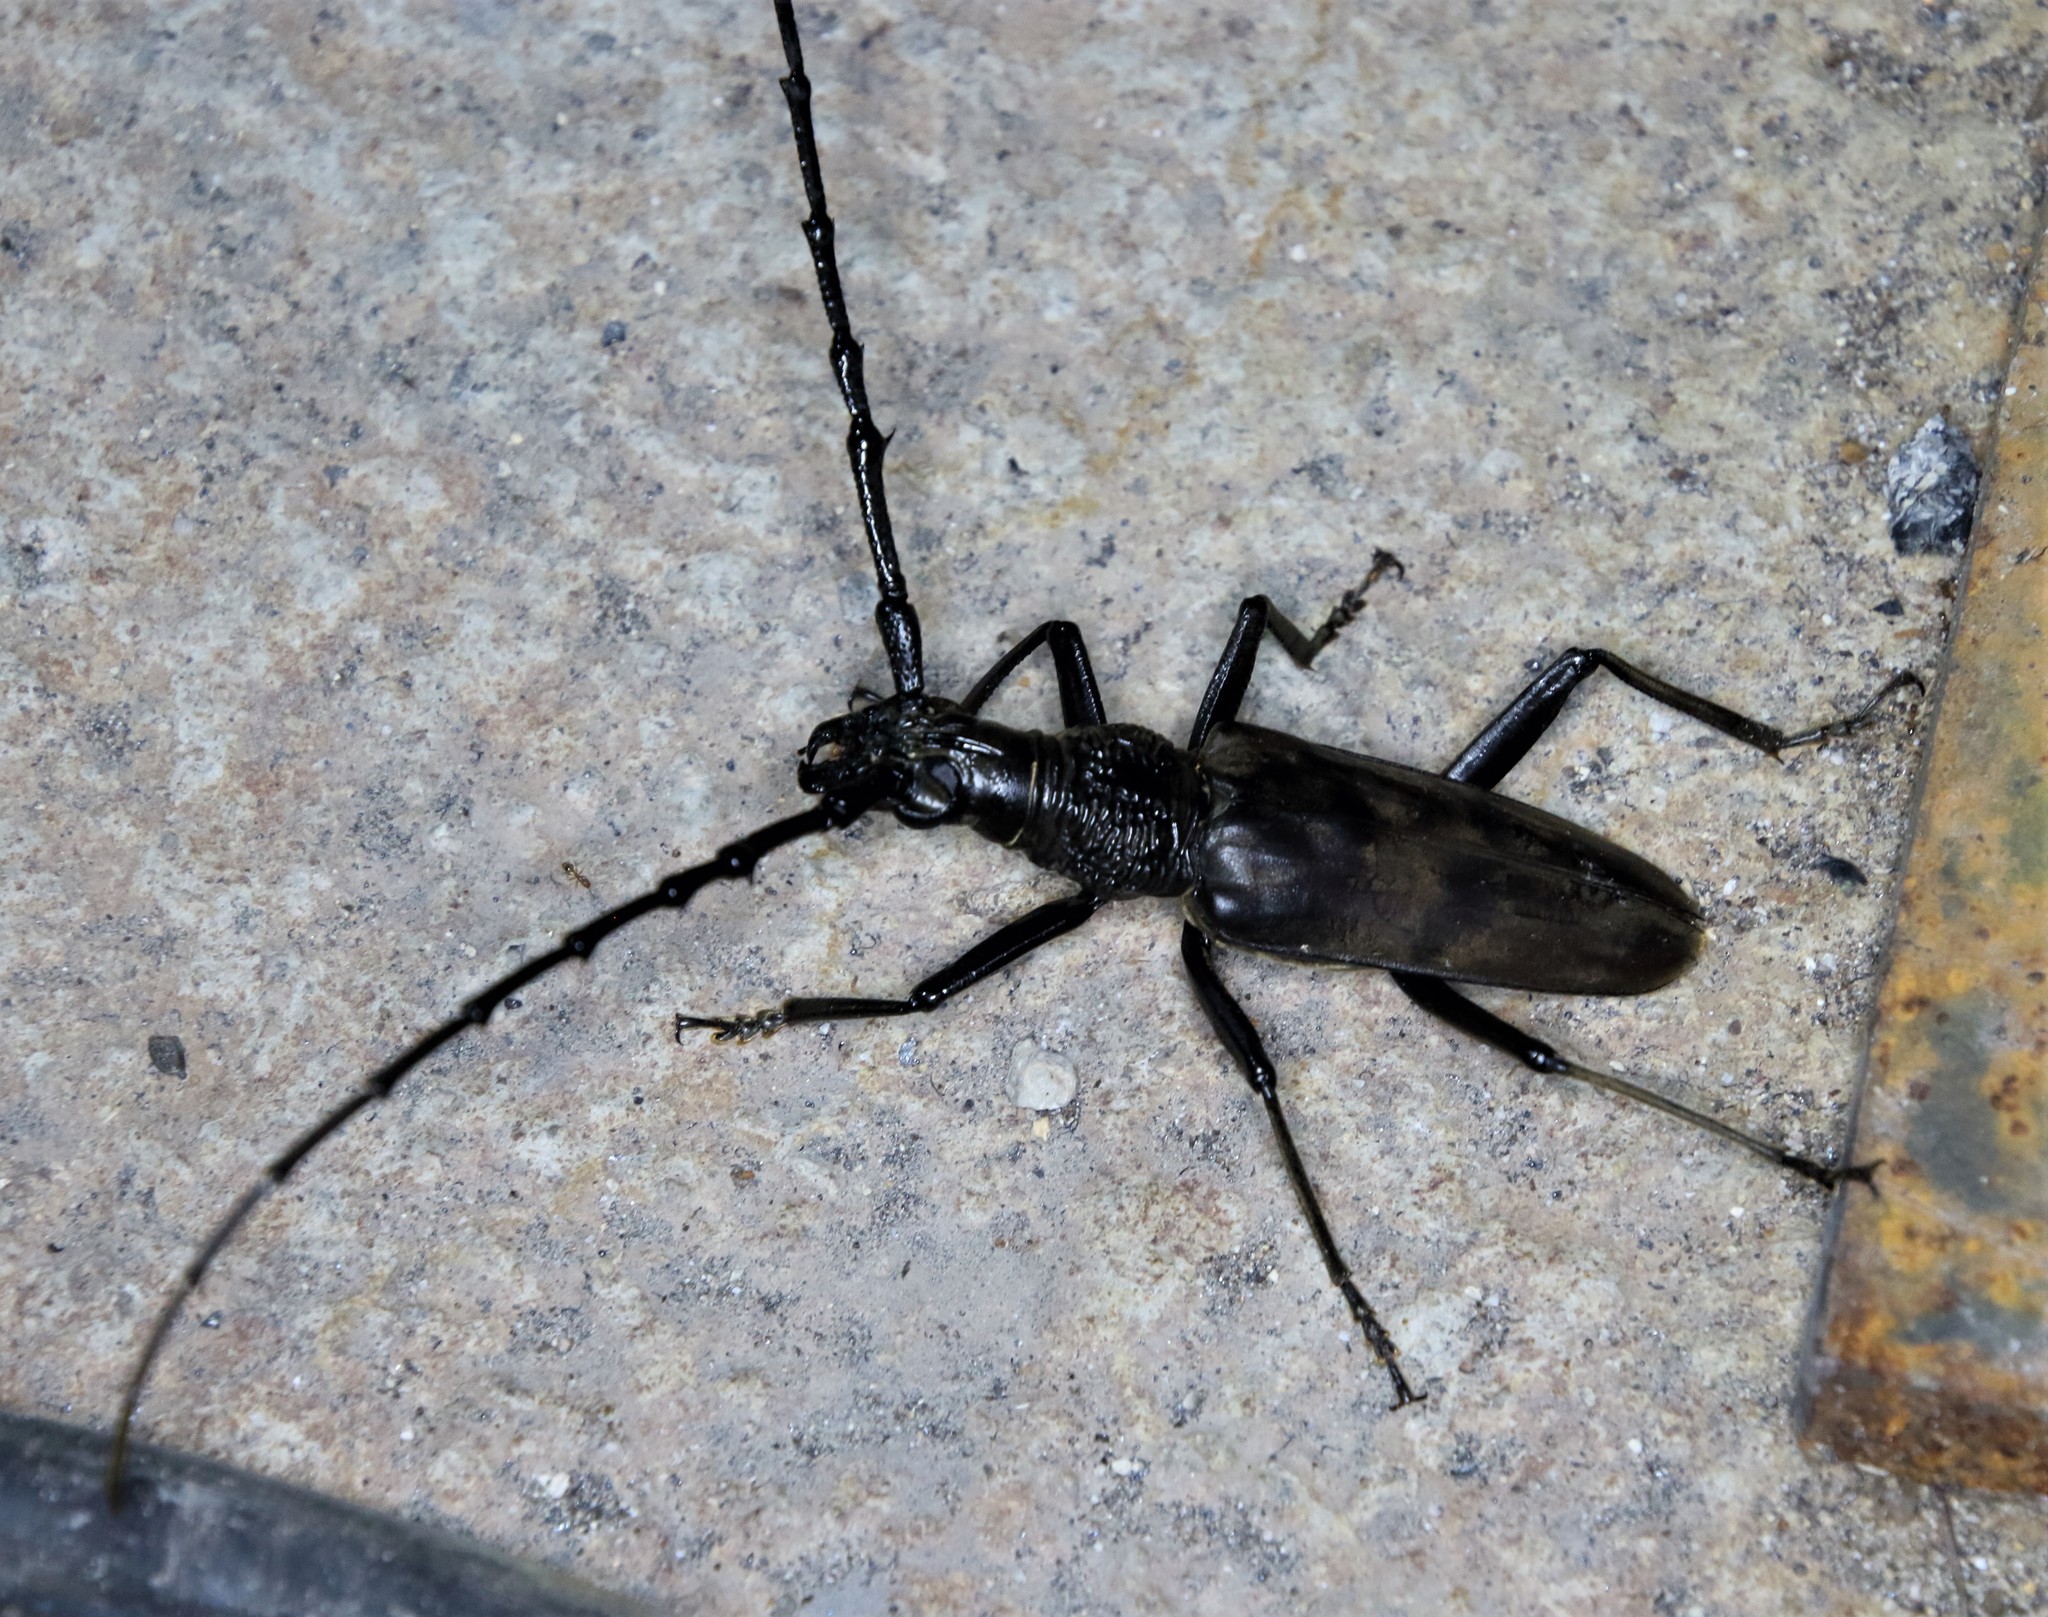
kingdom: Animalia
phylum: Arthropoda
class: Insecta
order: Coleoptera
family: Cerambycidae
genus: Hoplocerambyx
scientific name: Hoplocerambyx spinicornis
